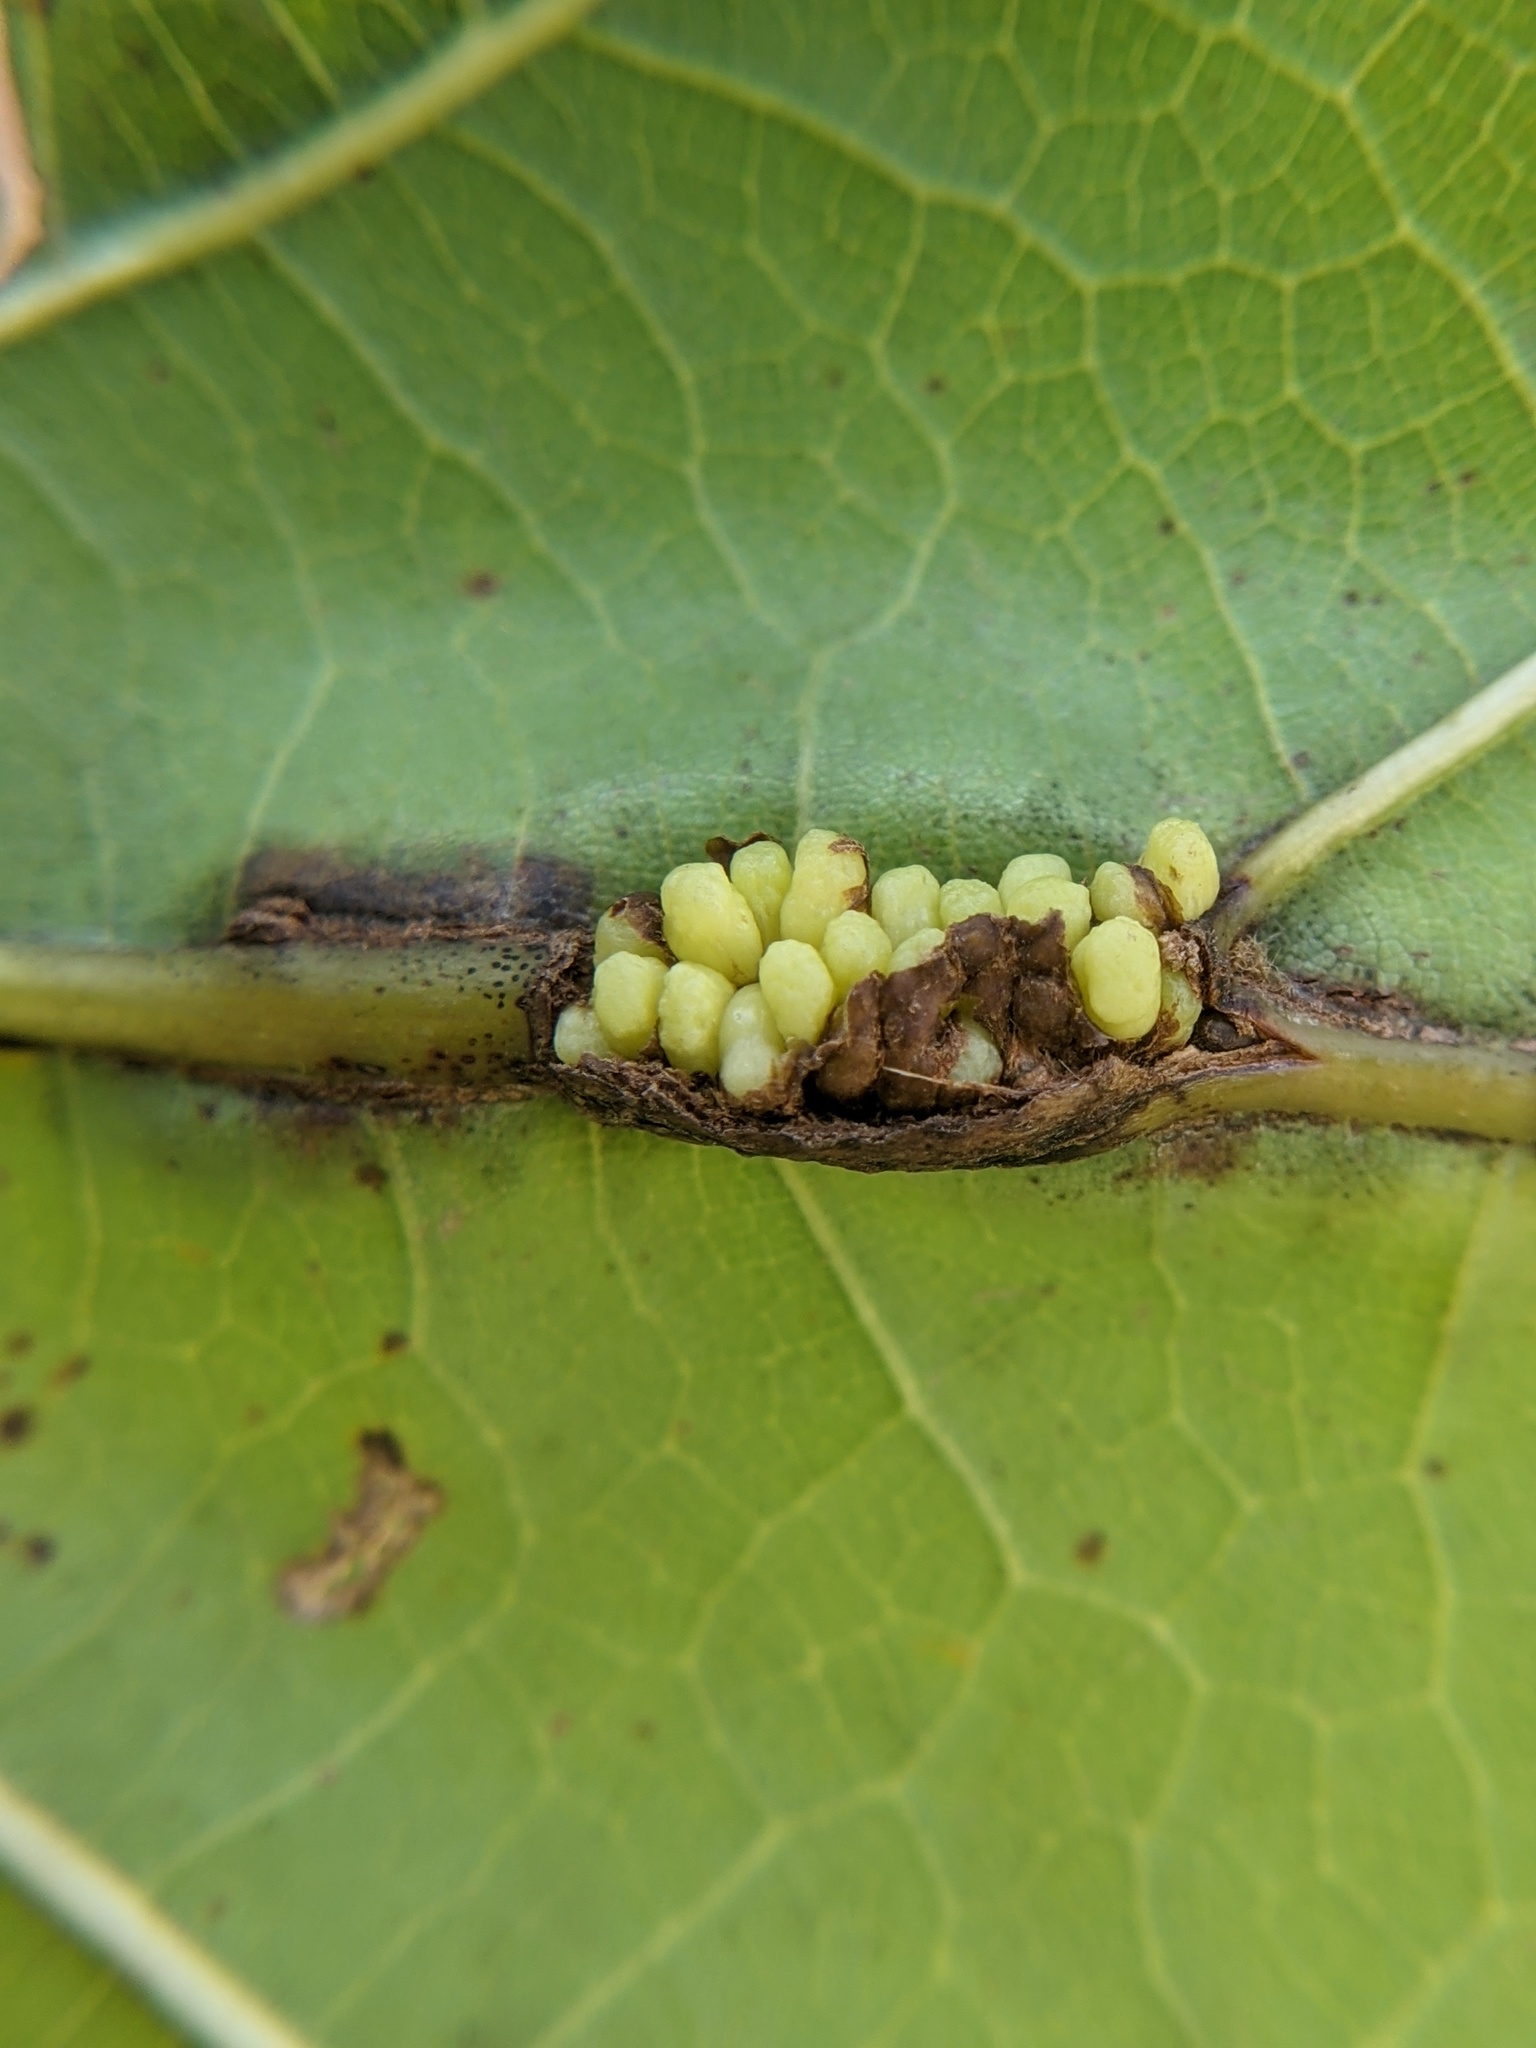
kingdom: Animalia
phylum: Arthropoda
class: Insecta
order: Hymenoptera
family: Cynipidae
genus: Callirhytis
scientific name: Callirhytis
